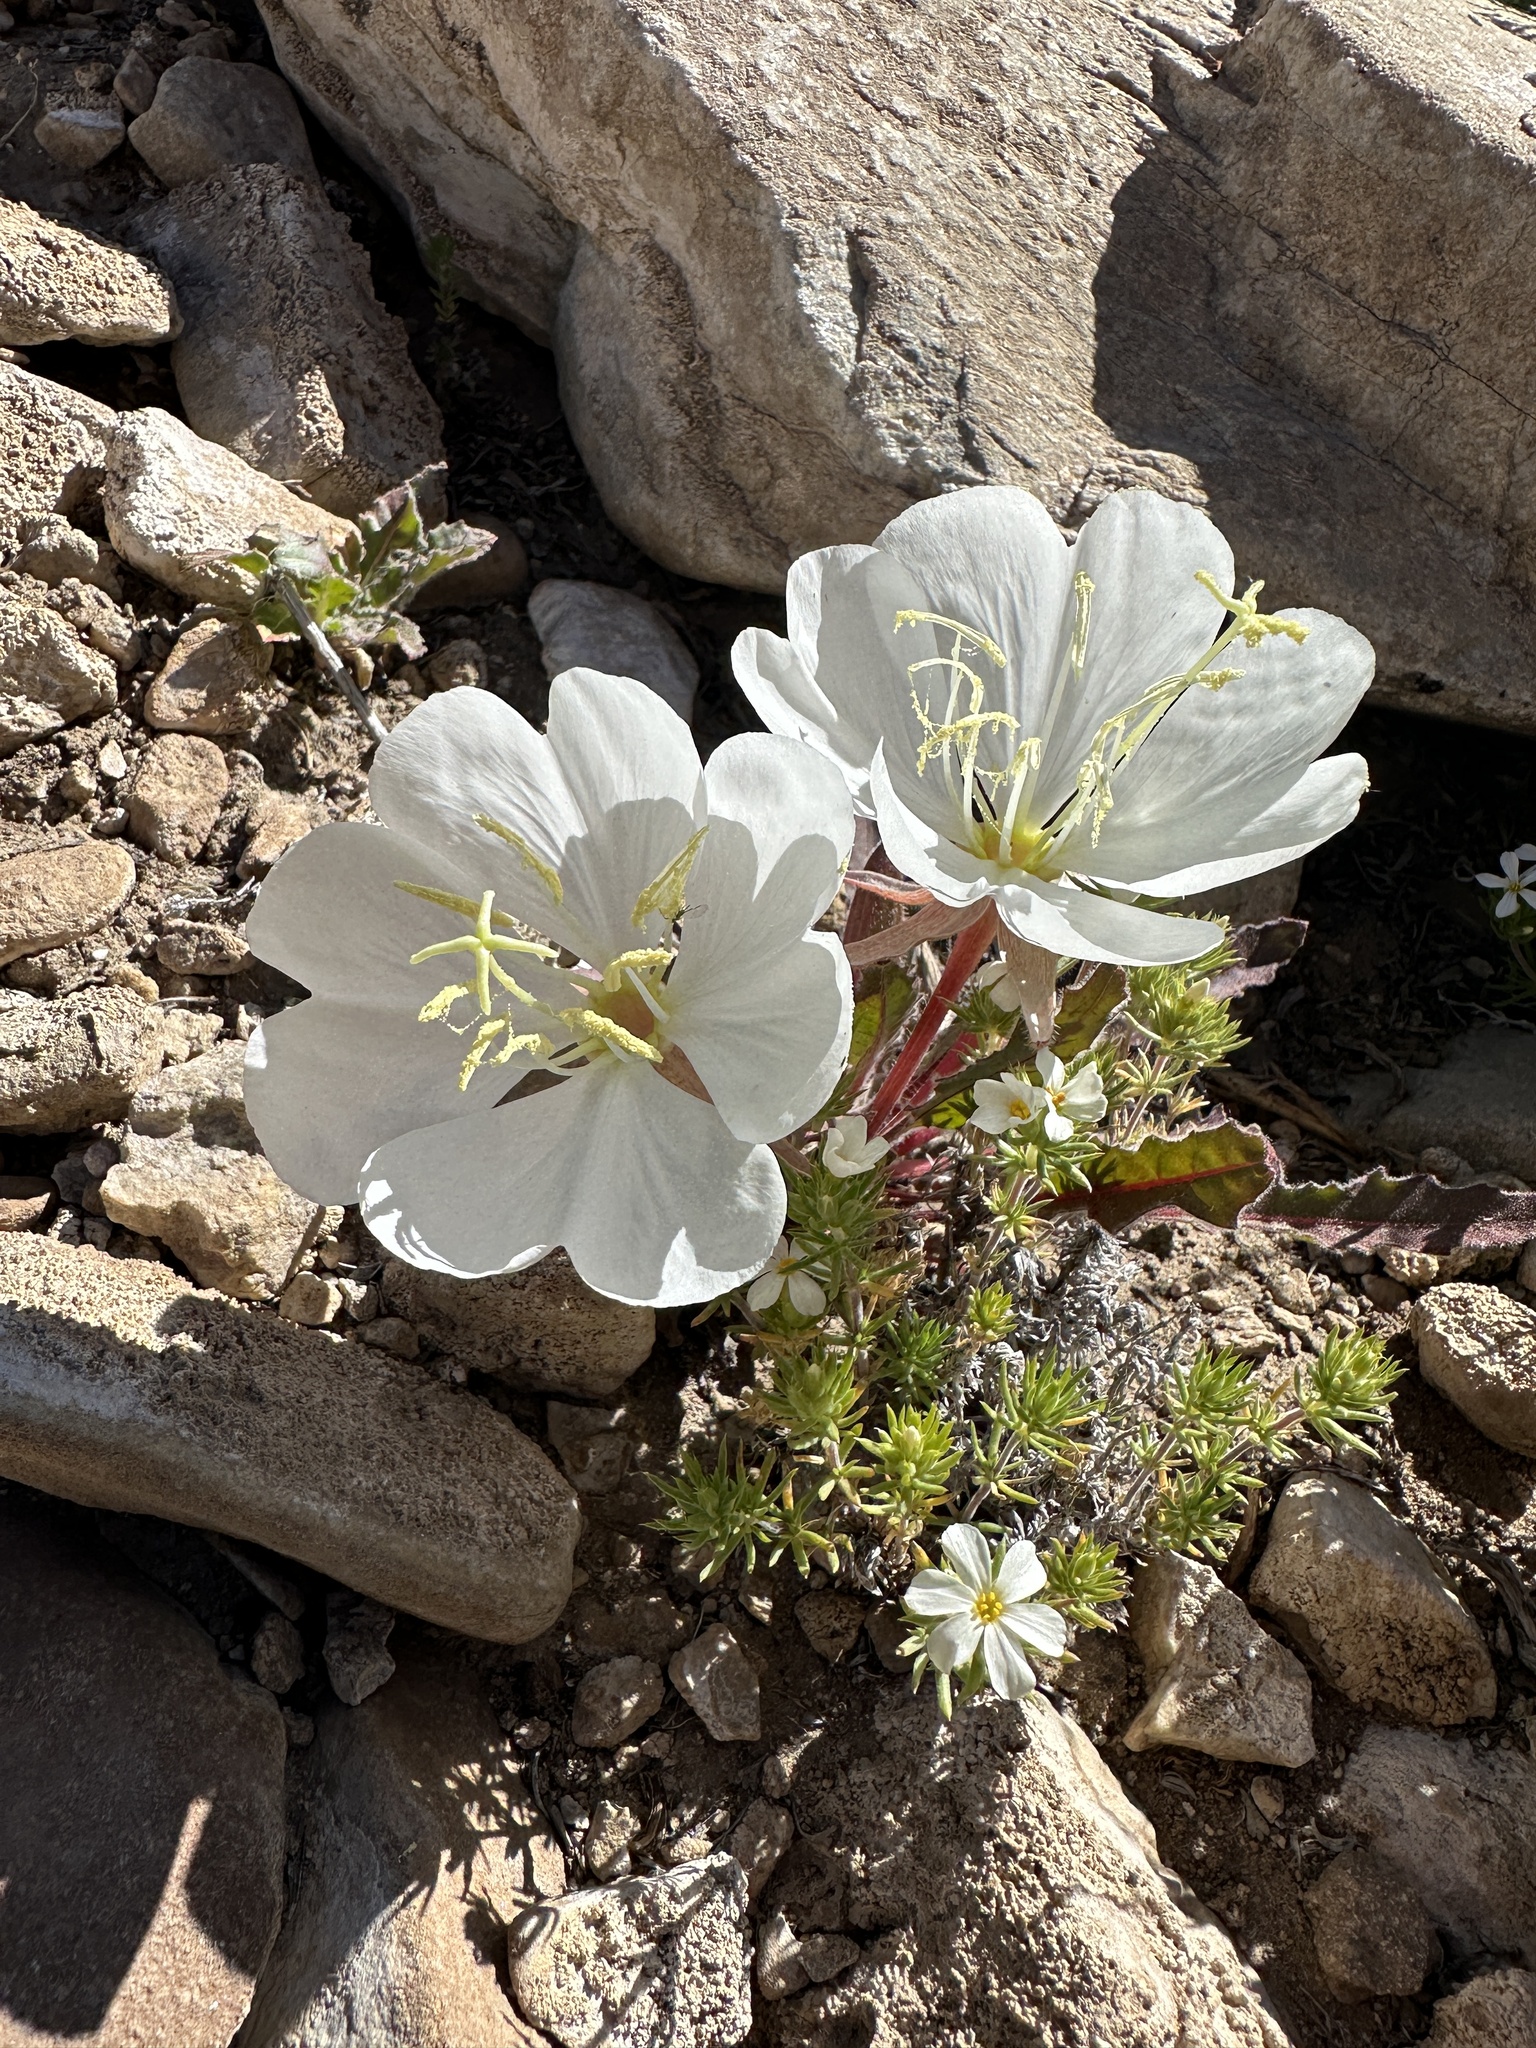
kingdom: Plantae
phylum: Tracheophyta
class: Magnoliopsida
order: Myrtales
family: Onagraceae
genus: Oenothera
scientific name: Oenothera cespitosa
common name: Tufted evening-primrose
